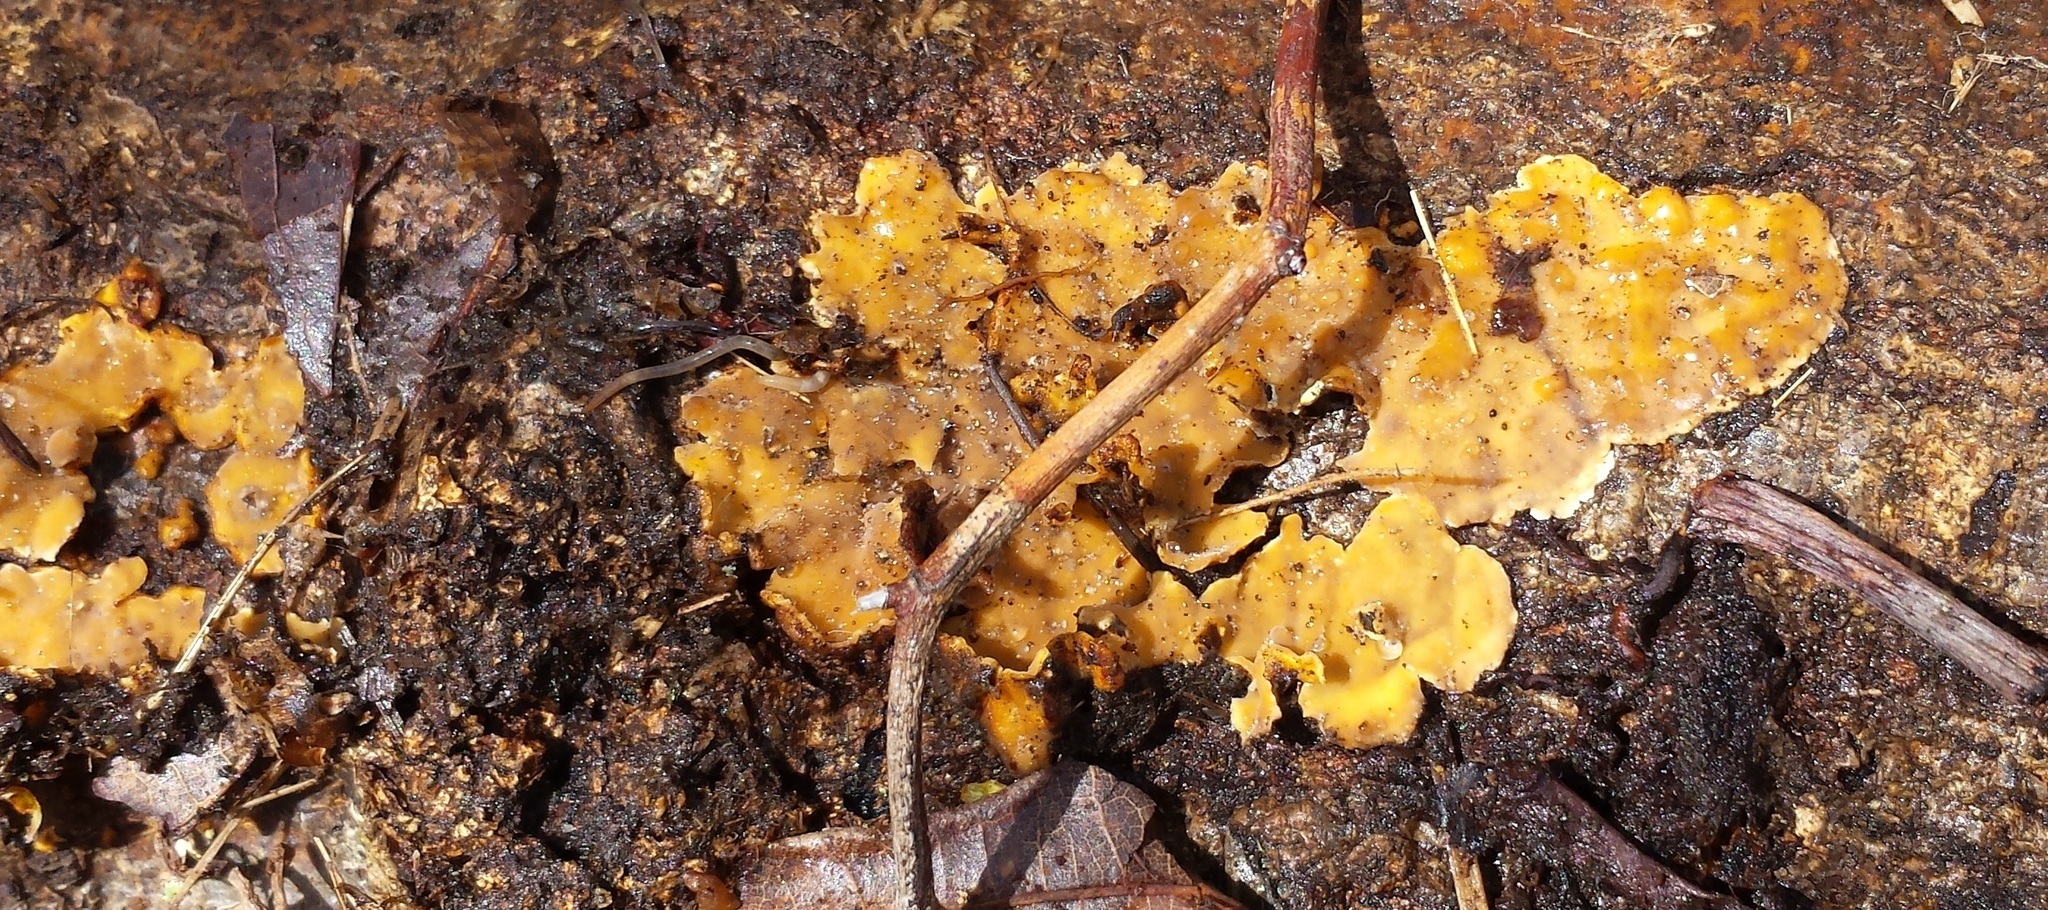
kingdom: Fungi
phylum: Basidiomycota
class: Agaricomycetes
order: Russulales
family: Stereaceae
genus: Stereum
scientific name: Stereum complicatum
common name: Crowded parchment
